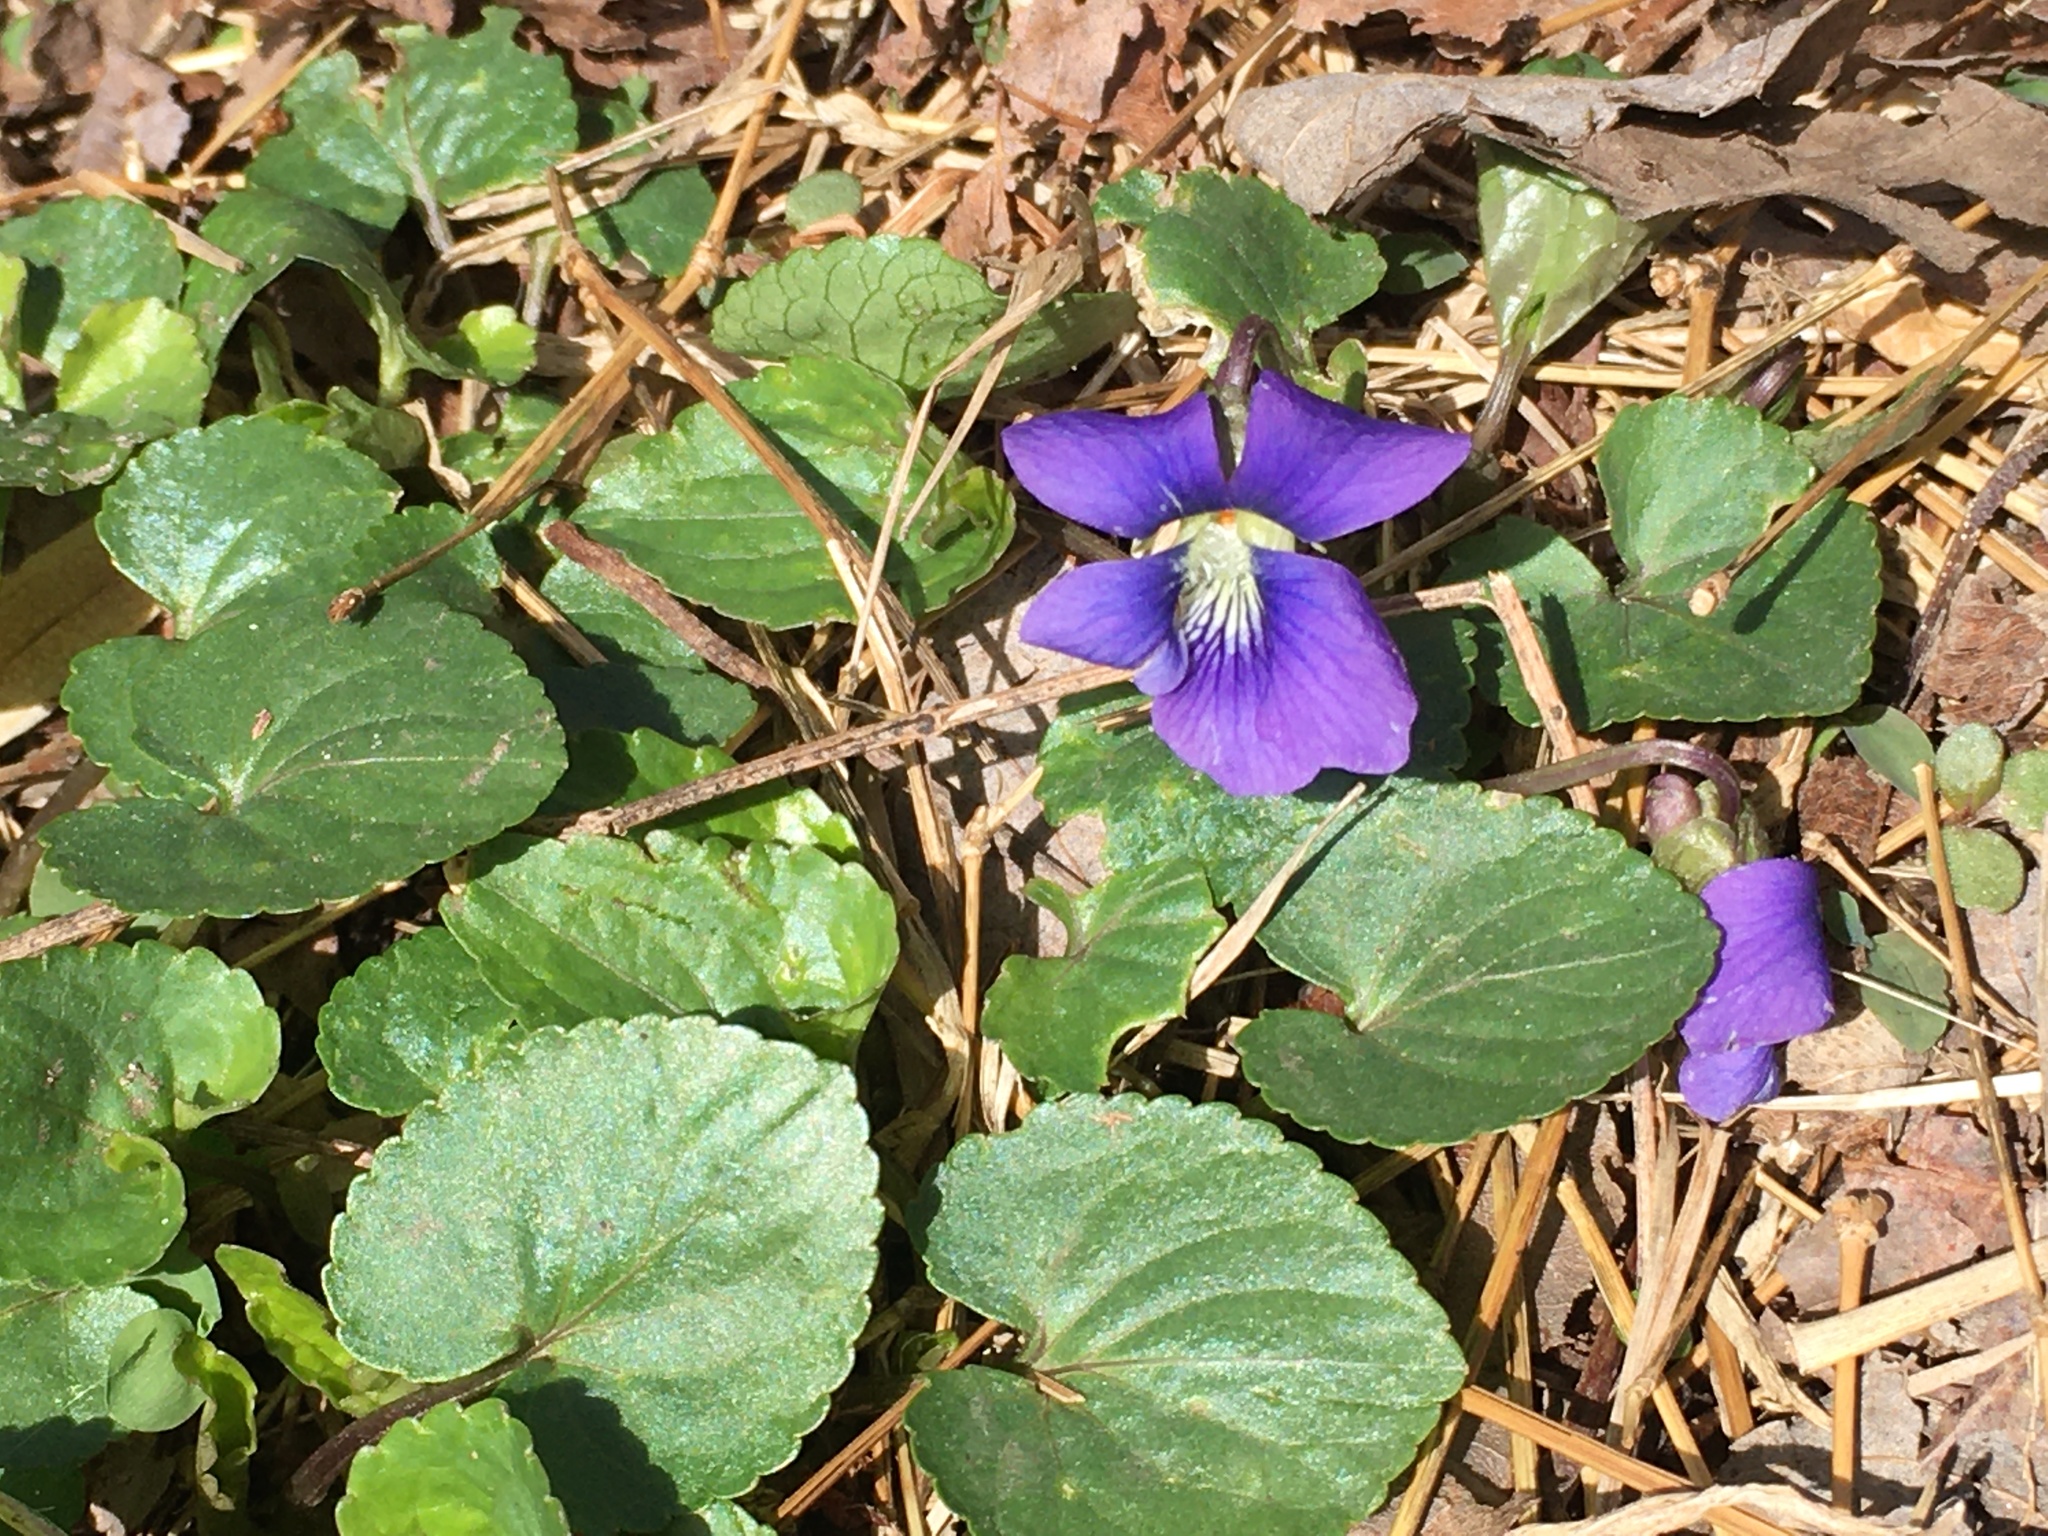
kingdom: Plantae
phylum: Tracheophyta
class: Magnoliopsida
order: Malpighiales
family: Violaceae
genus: Viola
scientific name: Viola sororia
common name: Dooryard violet
